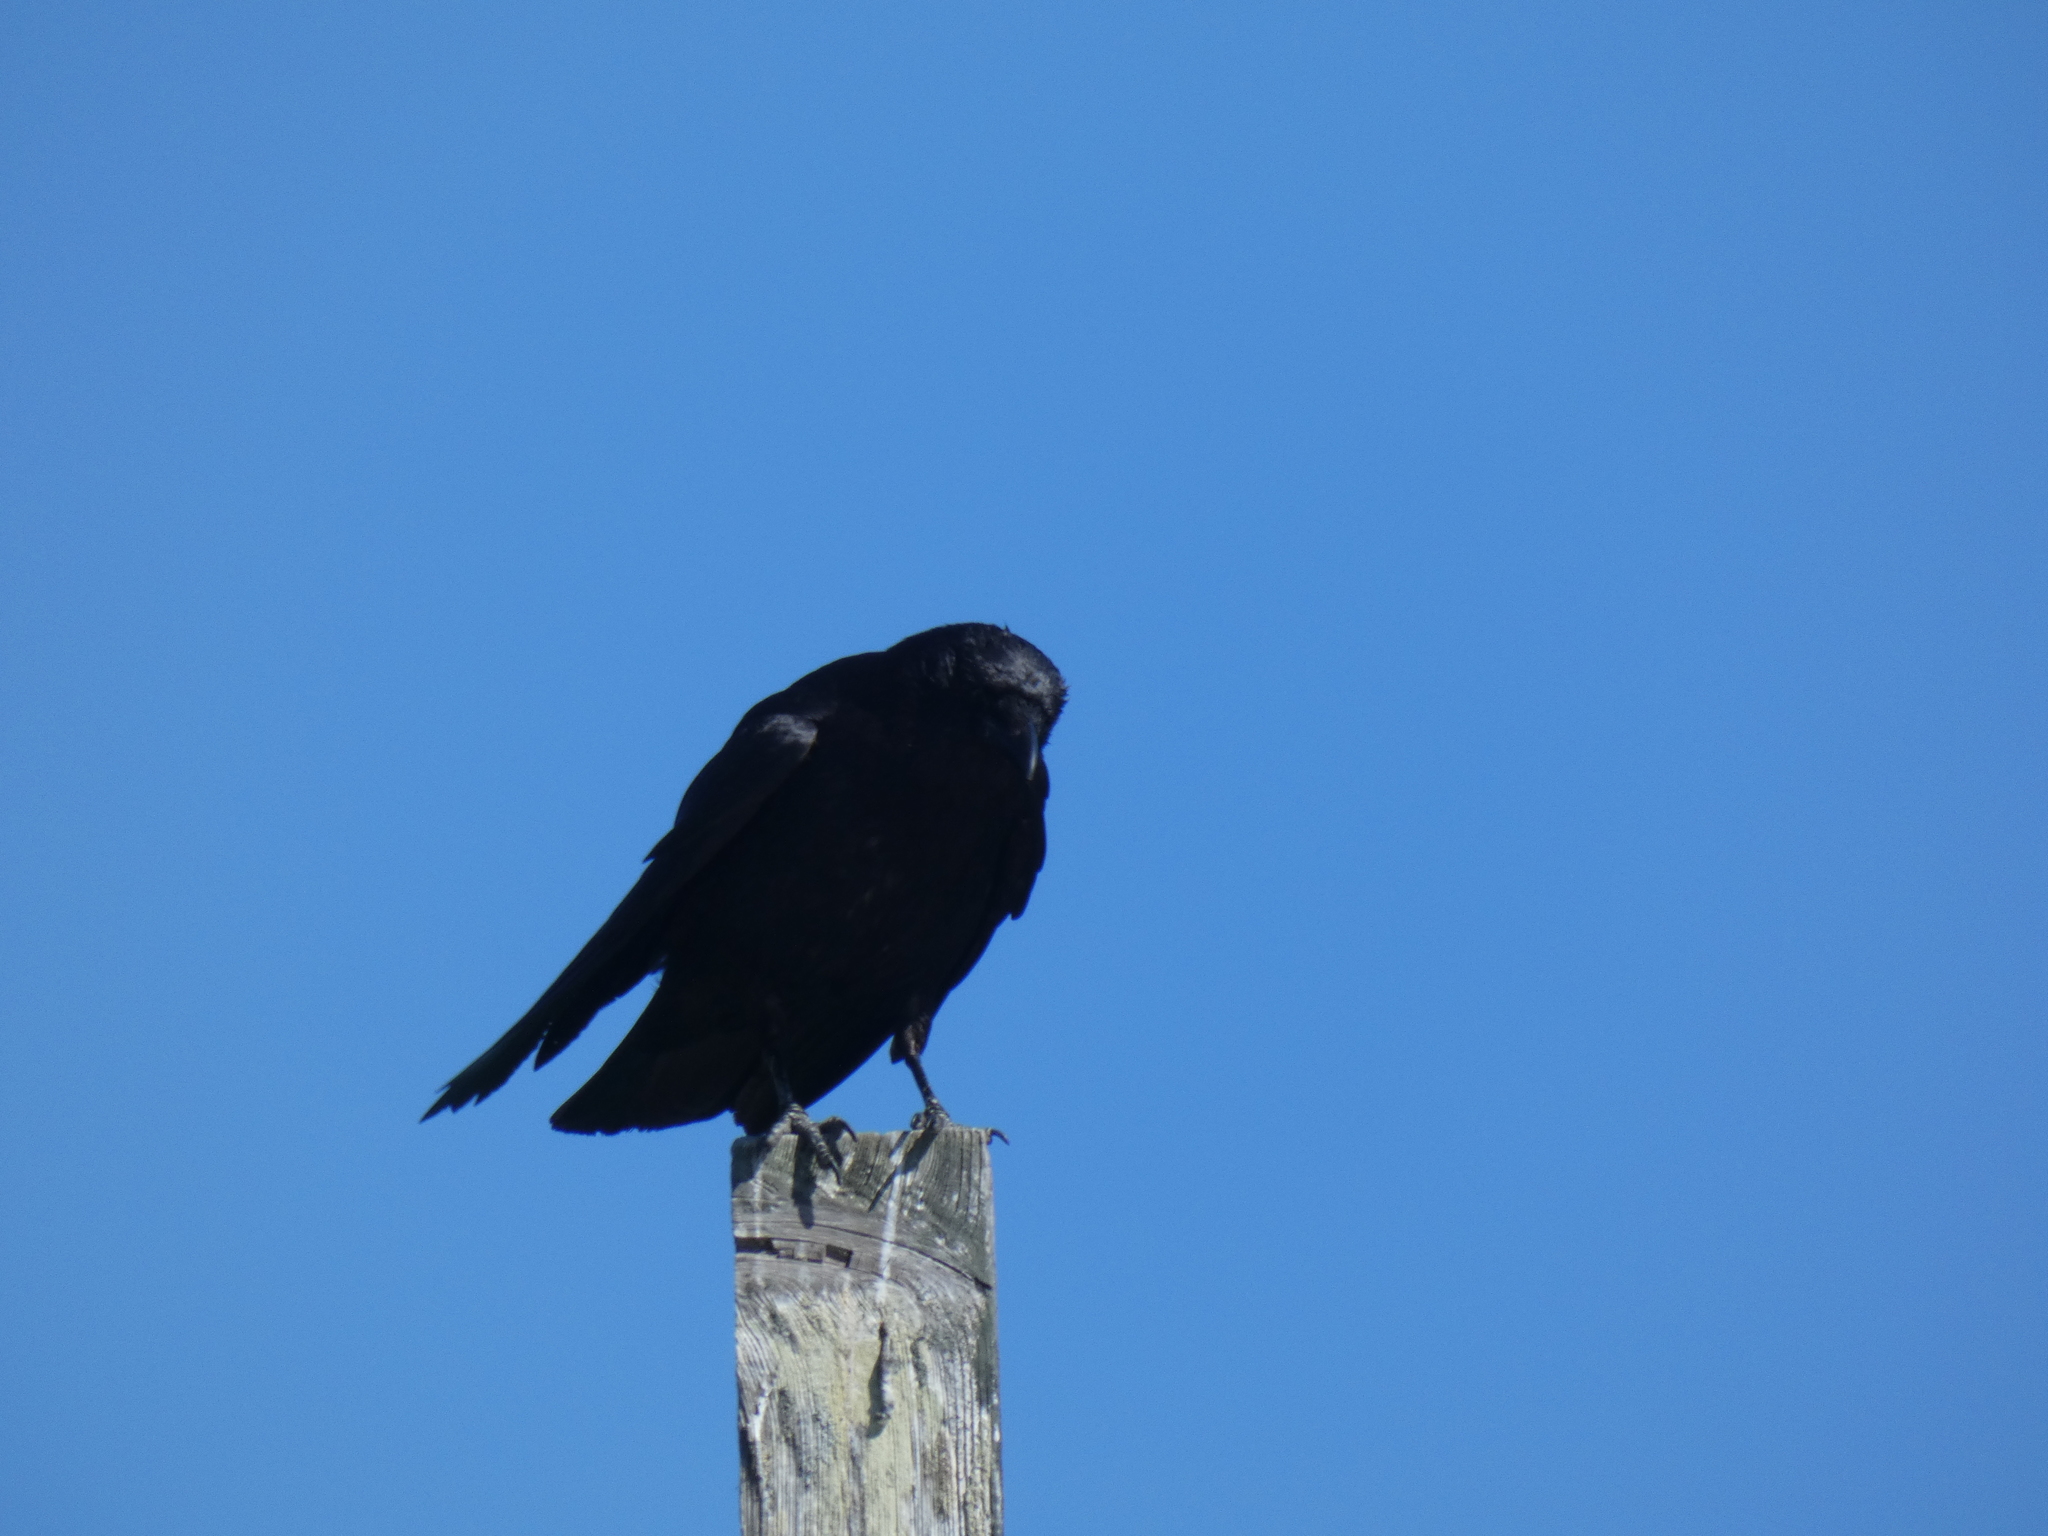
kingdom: Animalia
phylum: Chordata
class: Aves
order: Passeriformes
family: Corvidae
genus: Corvus
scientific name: Corvus brachyrhynchos
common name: American crow
